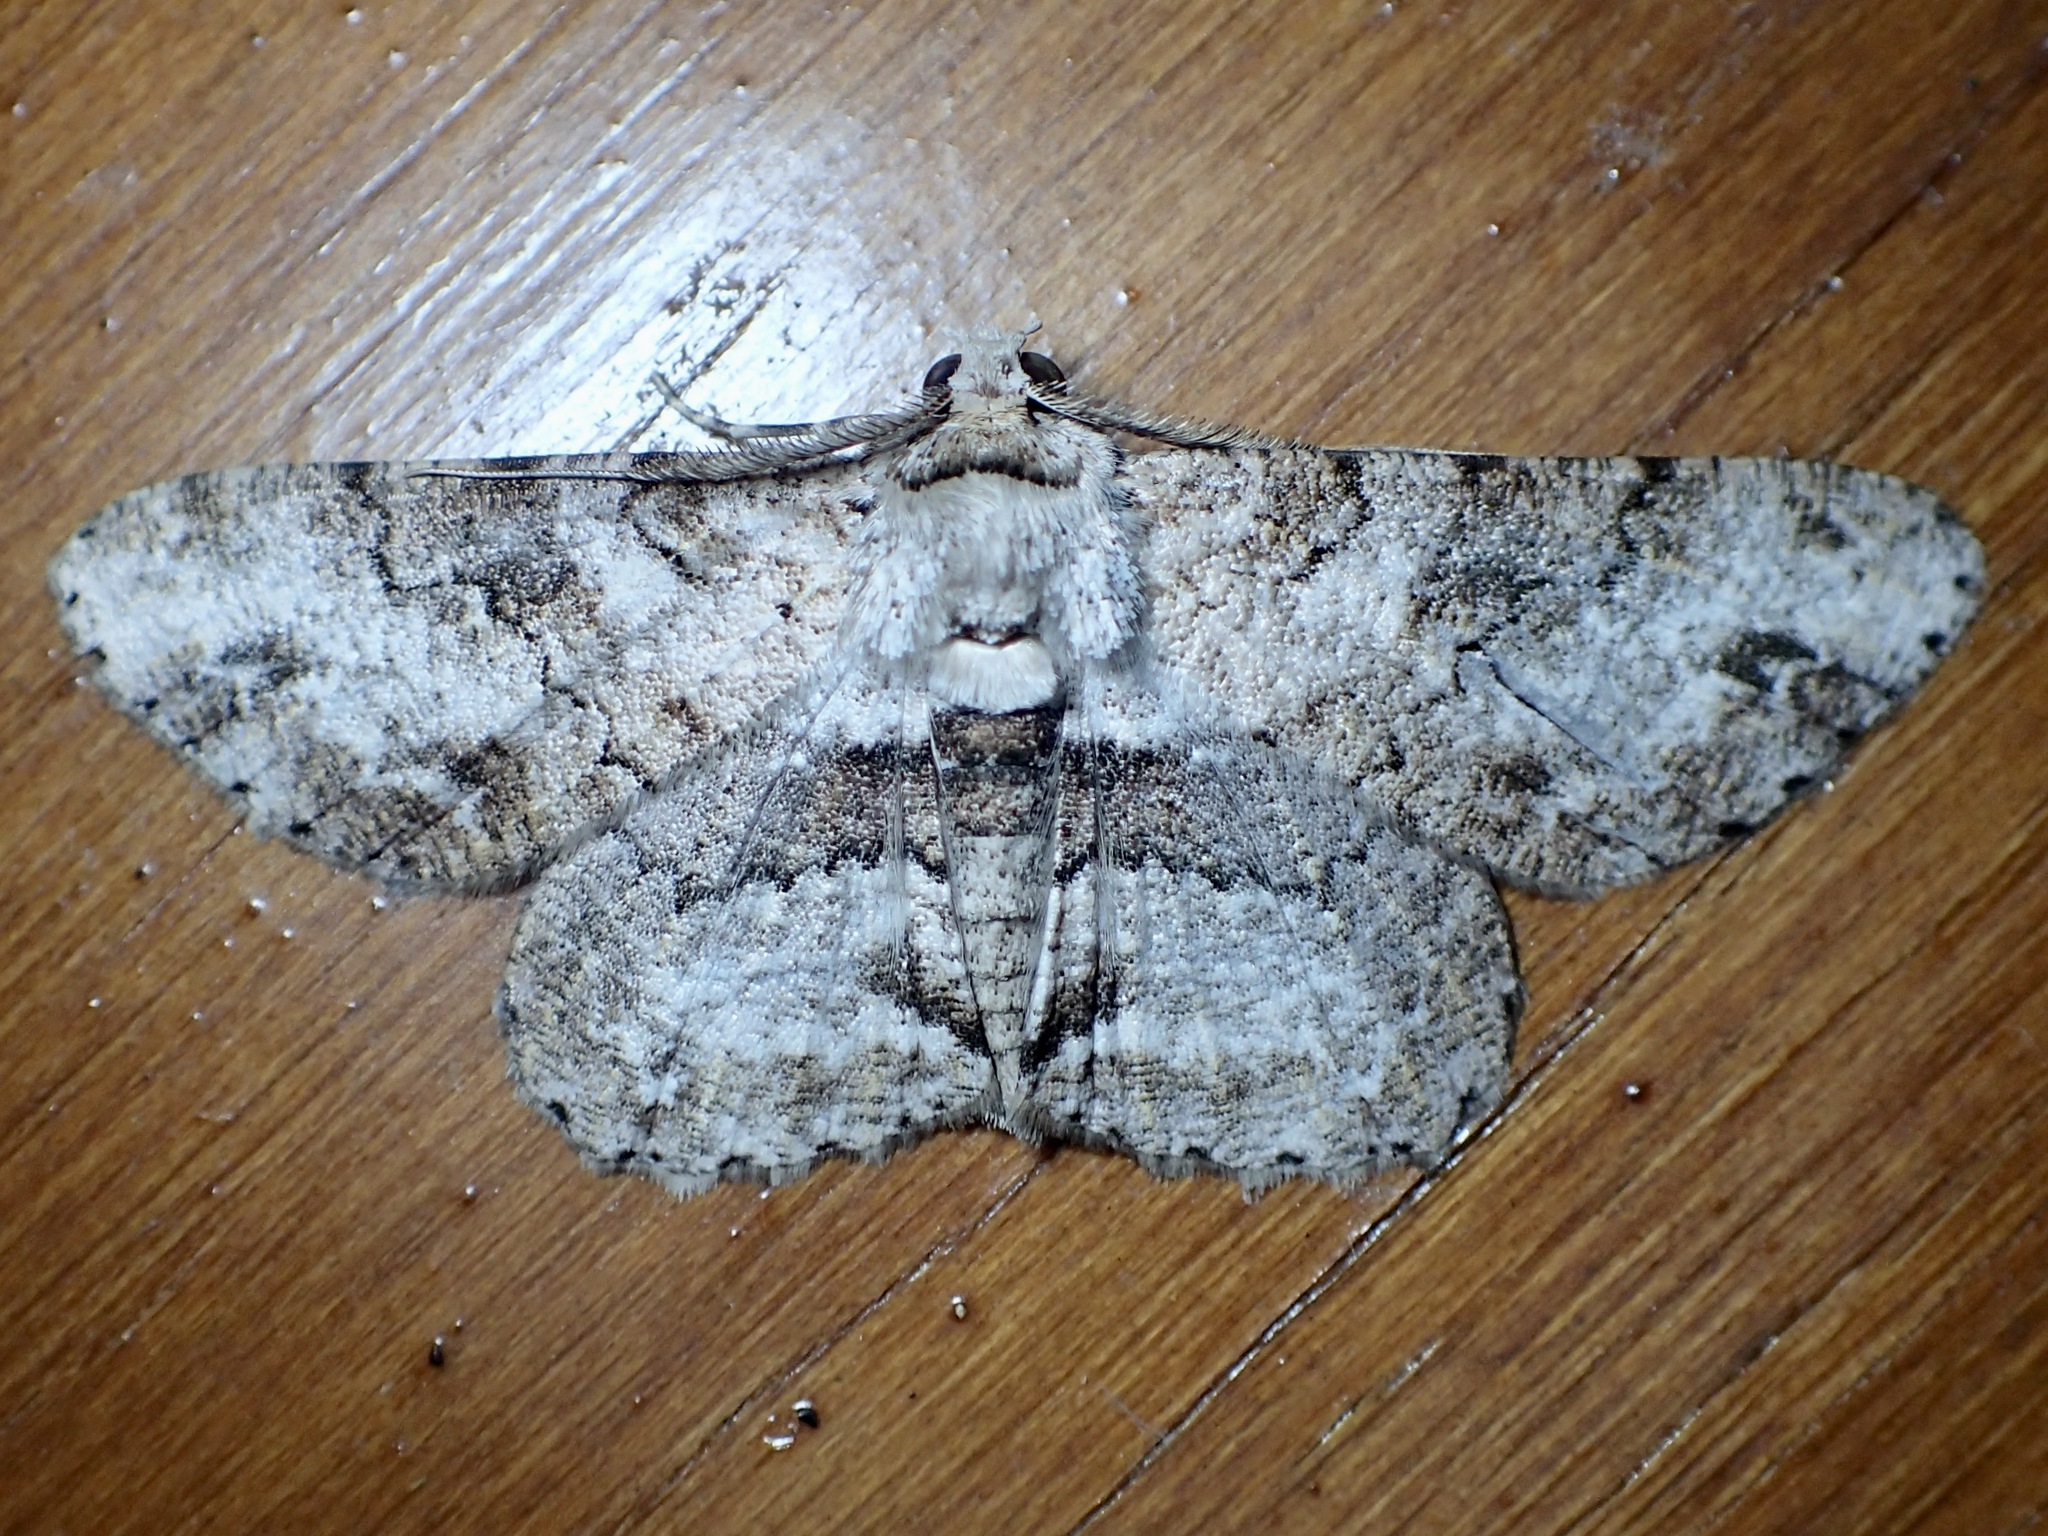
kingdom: Animalia
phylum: Arthropoda
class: Insecta
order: Lepidoptera
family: Geometridae
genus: Cleora
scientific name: Cleora repetita
